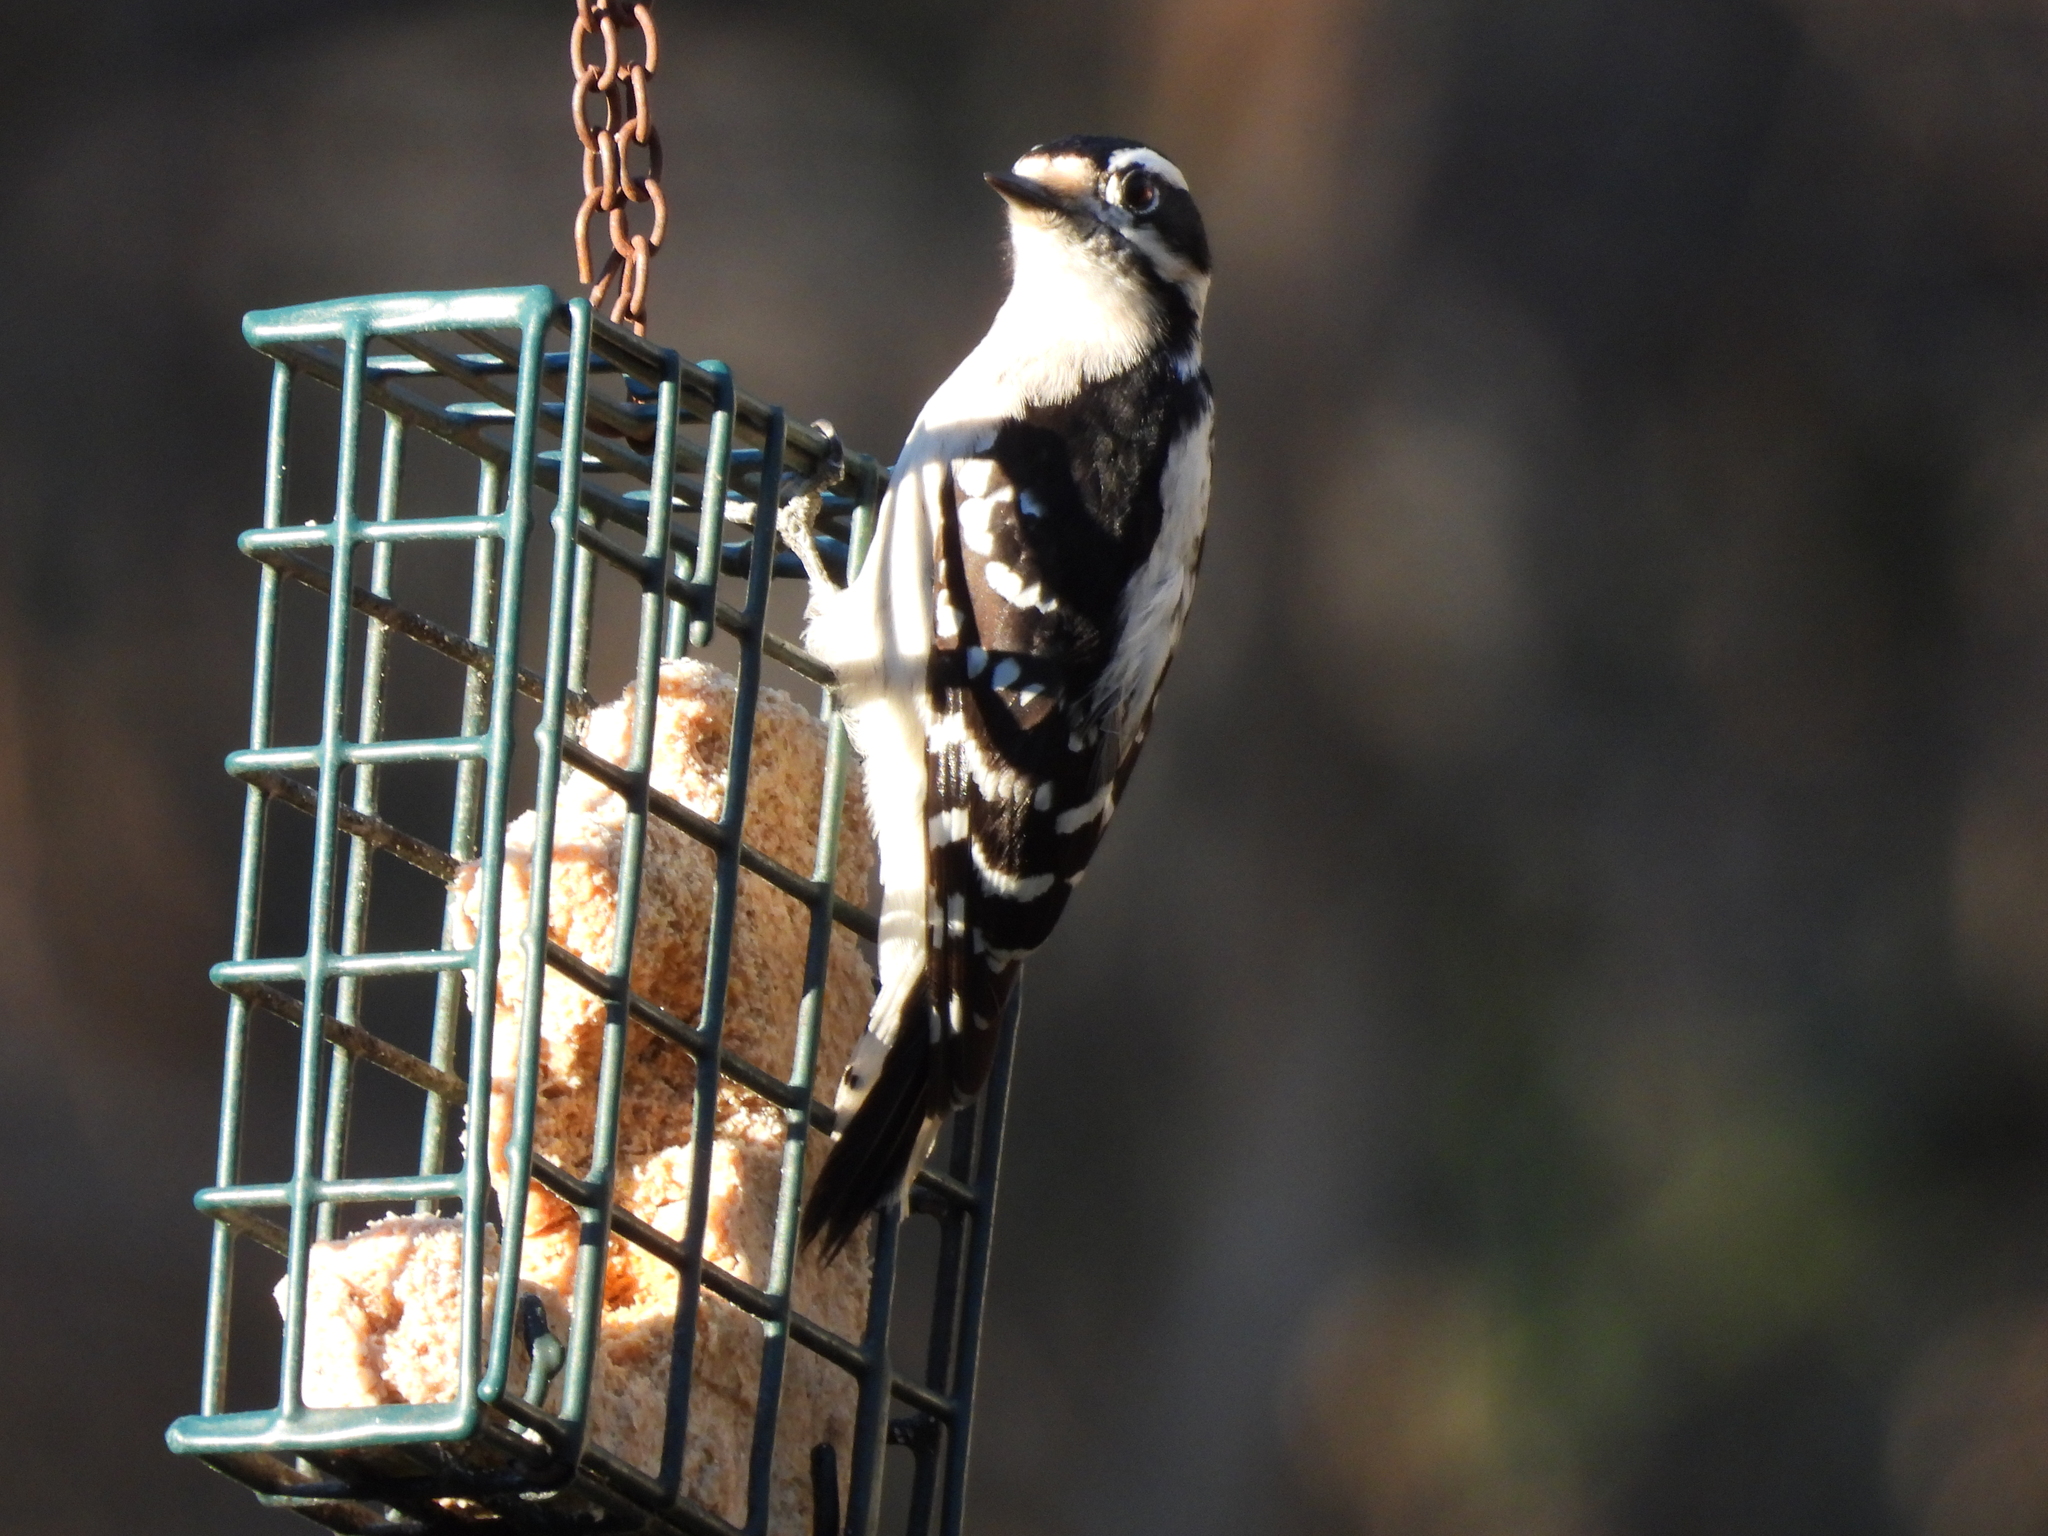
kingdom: Animalia
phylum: Chordata
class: Aves
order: Piciformes
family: Picidae
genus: Dryobates
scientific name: Dryobates pubescens
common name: Downy woodpecker
